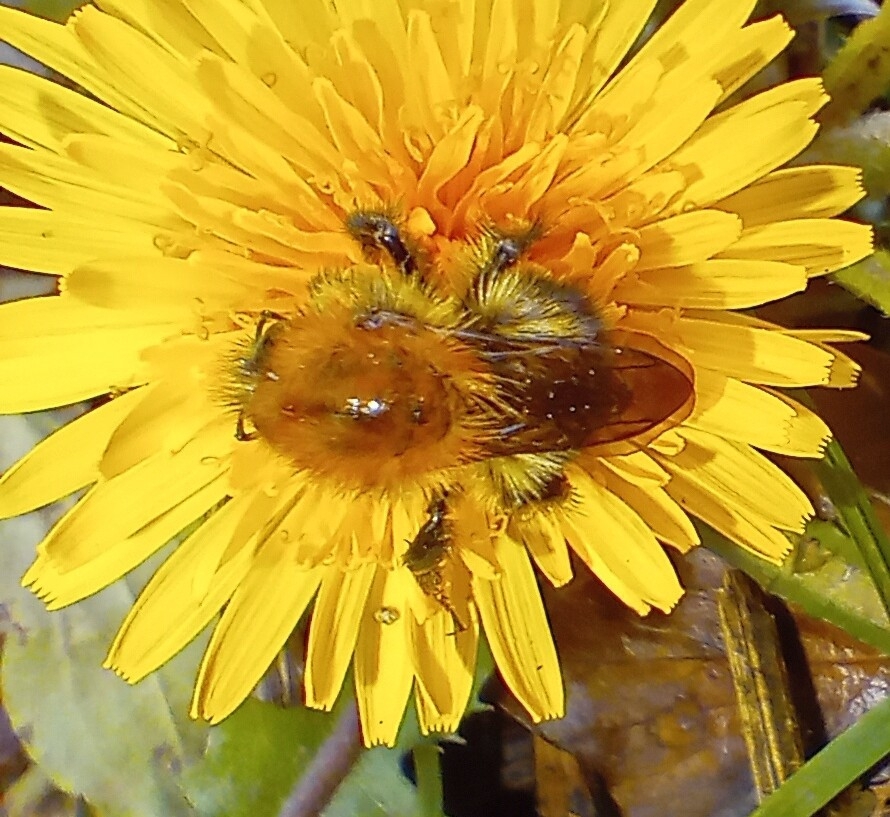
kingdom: Animalia
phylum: Arthropoda
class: Insecta
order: Hymenoptera
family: Apidae
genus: Bombus
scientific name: Bombus pascuorum
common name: Common carder bee
